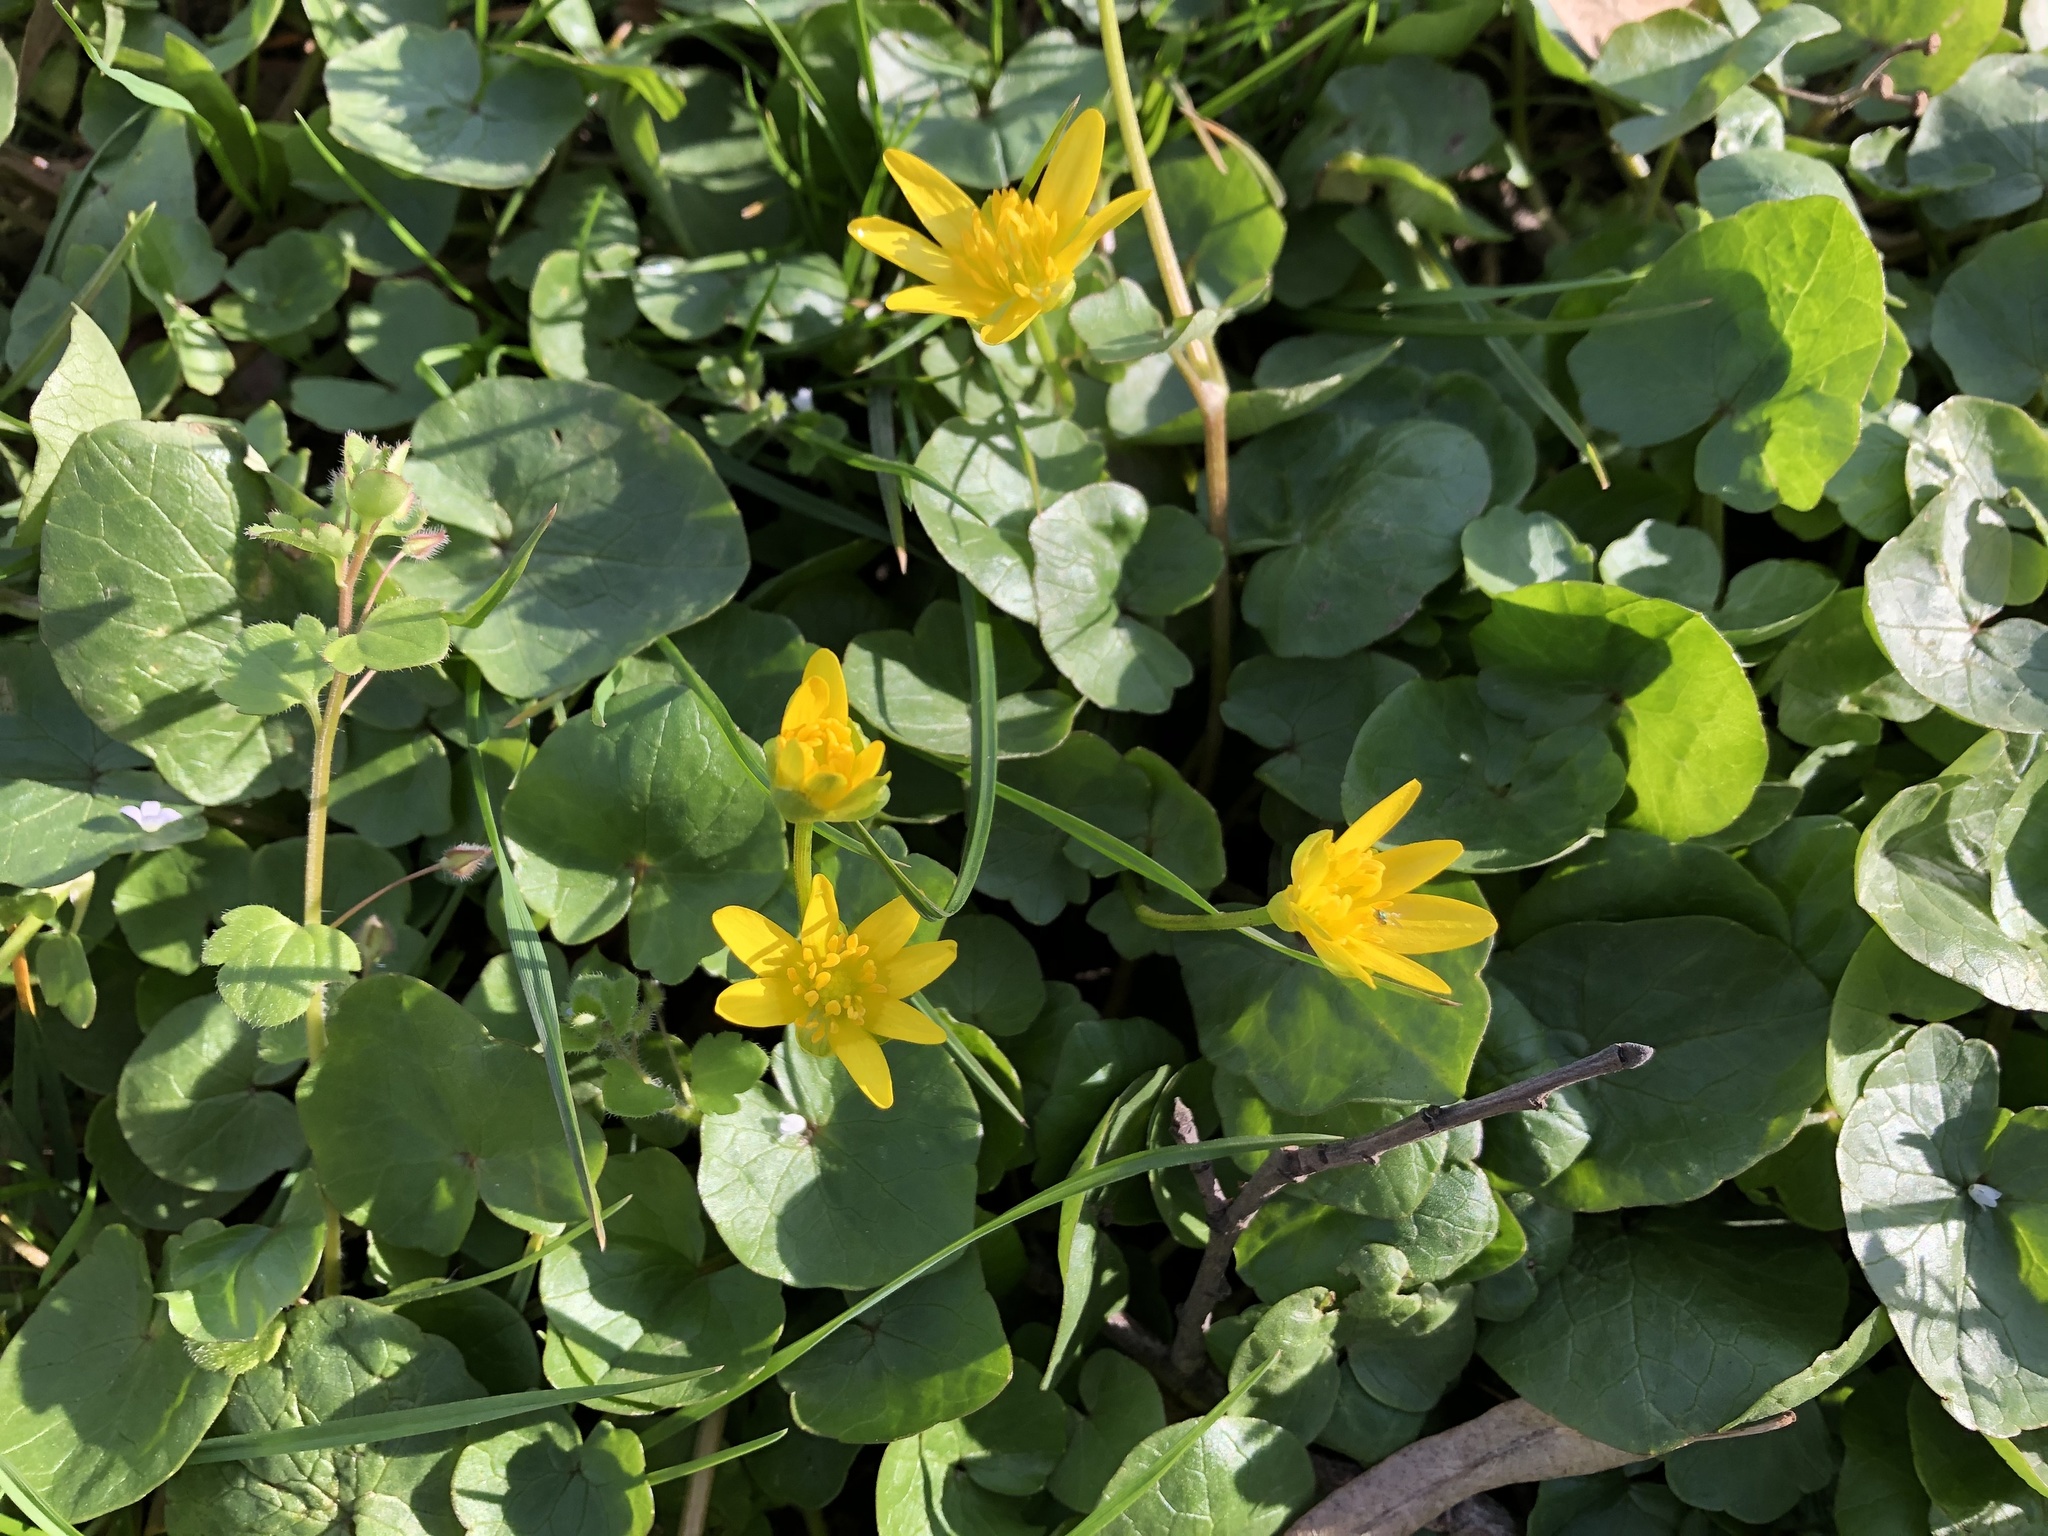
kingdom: Plantae
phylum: Tracheophyta
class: Magnoliopsida
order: Ranunculales
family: Ranunculaceae
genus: Ficaria
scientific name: Ficaria verna
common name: Lesser celandine
